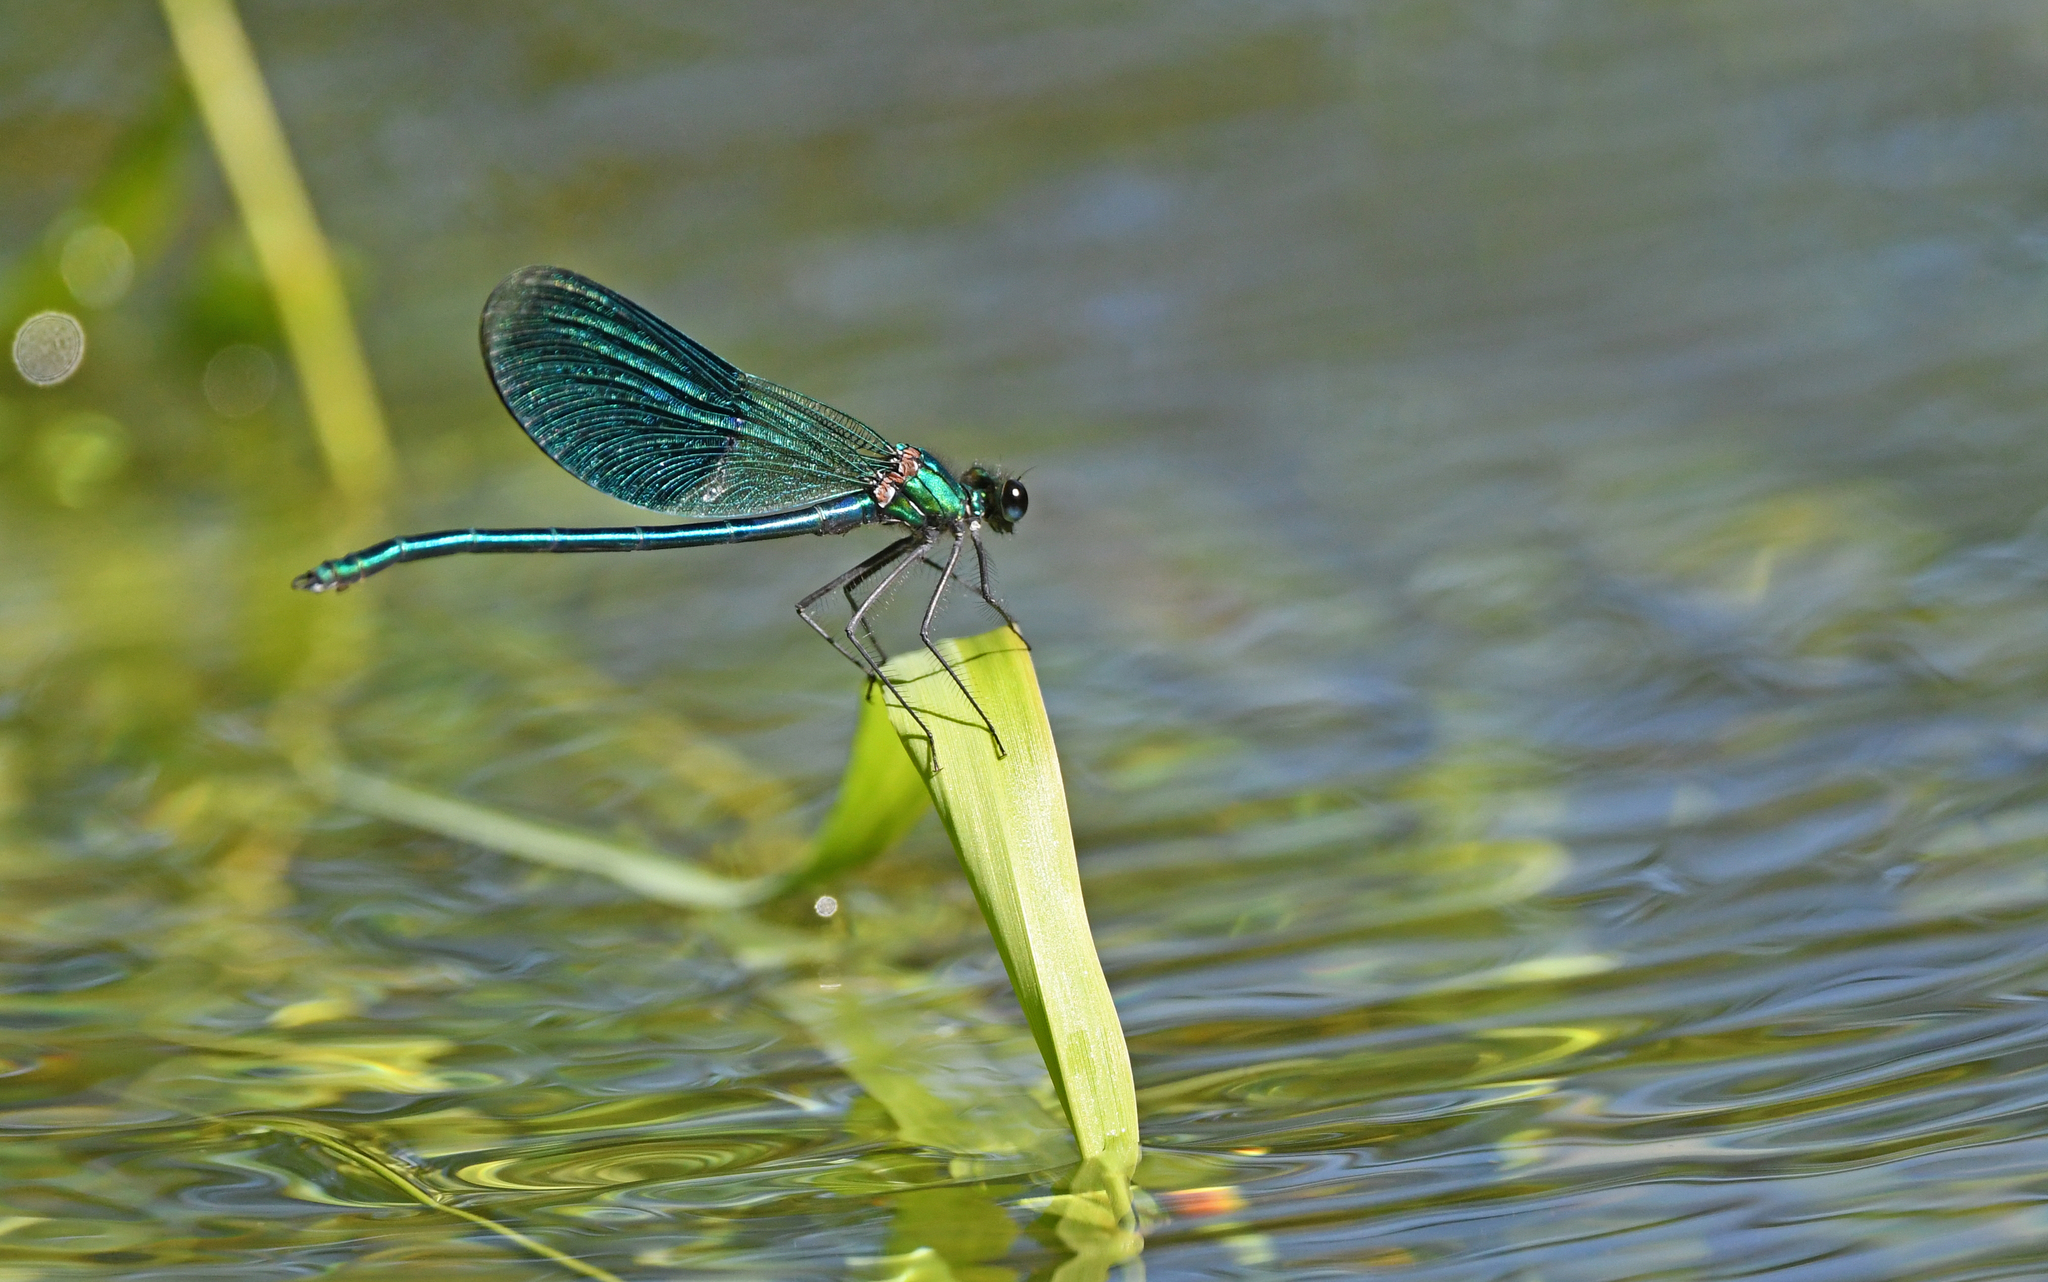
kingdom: Animalia
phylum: Arthropoda
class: Insecta
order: Odonata
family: Calopterygidae
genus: Calopteryx
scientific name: Calopteryx splendens
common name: Banded demoiselle
